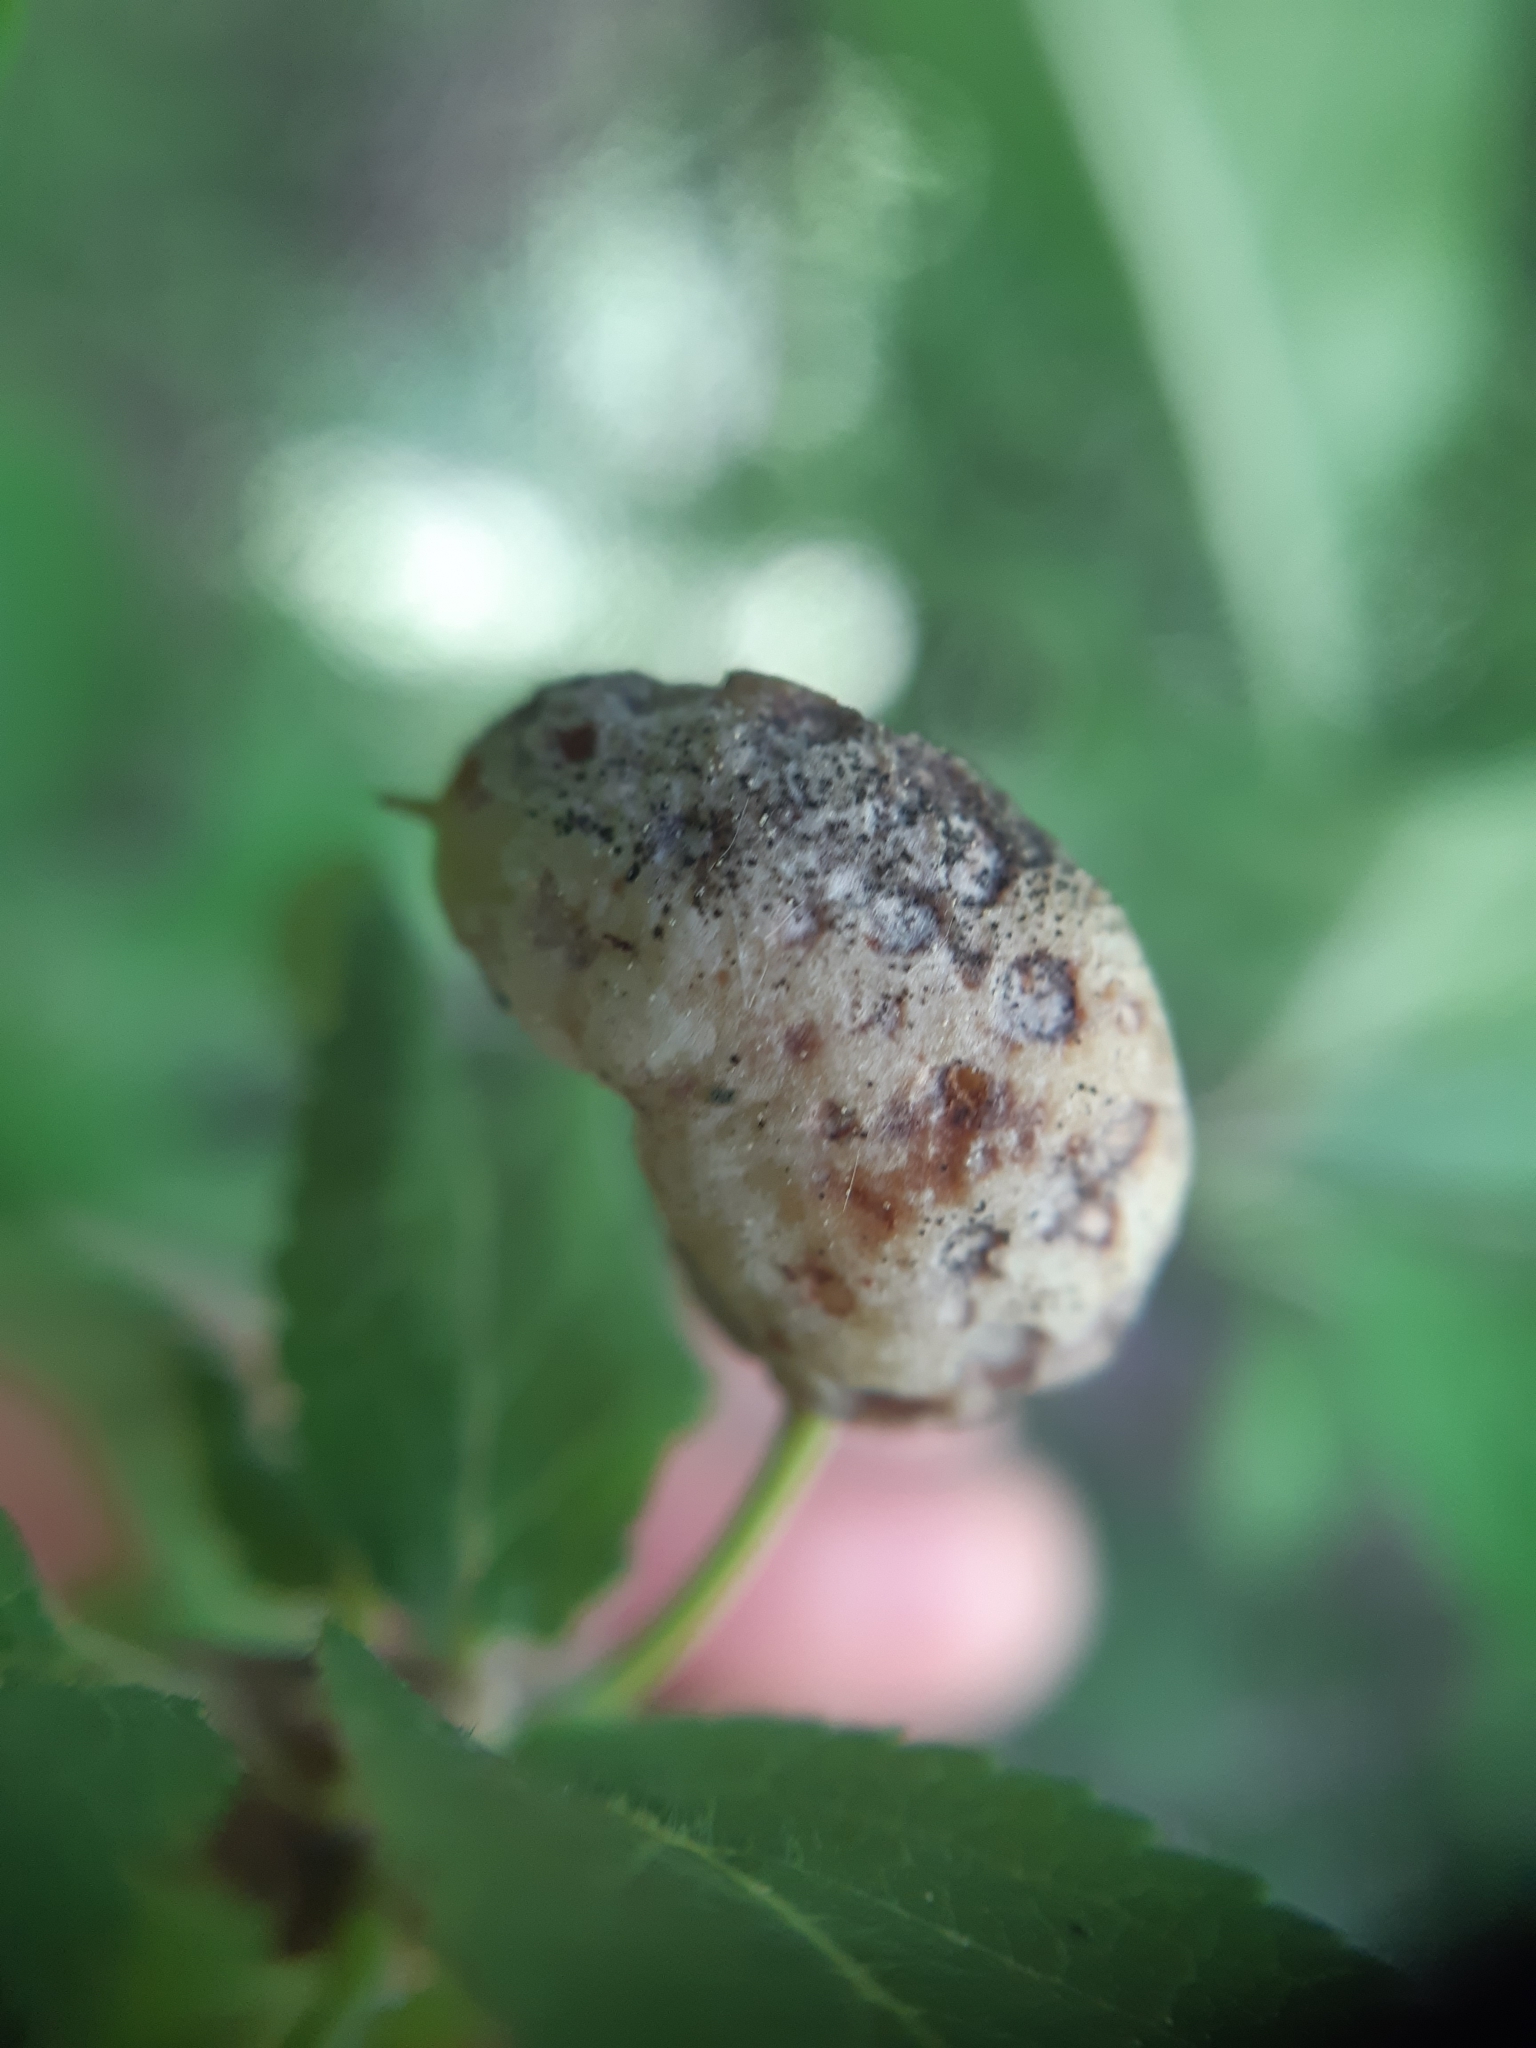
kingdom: Fungi
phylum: Ascomycota
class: Taphrinomycetes
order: Taphrinales
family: Taphrinaceae
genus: Taphrina
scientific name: Taphrina pruni
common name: Pocket plum
